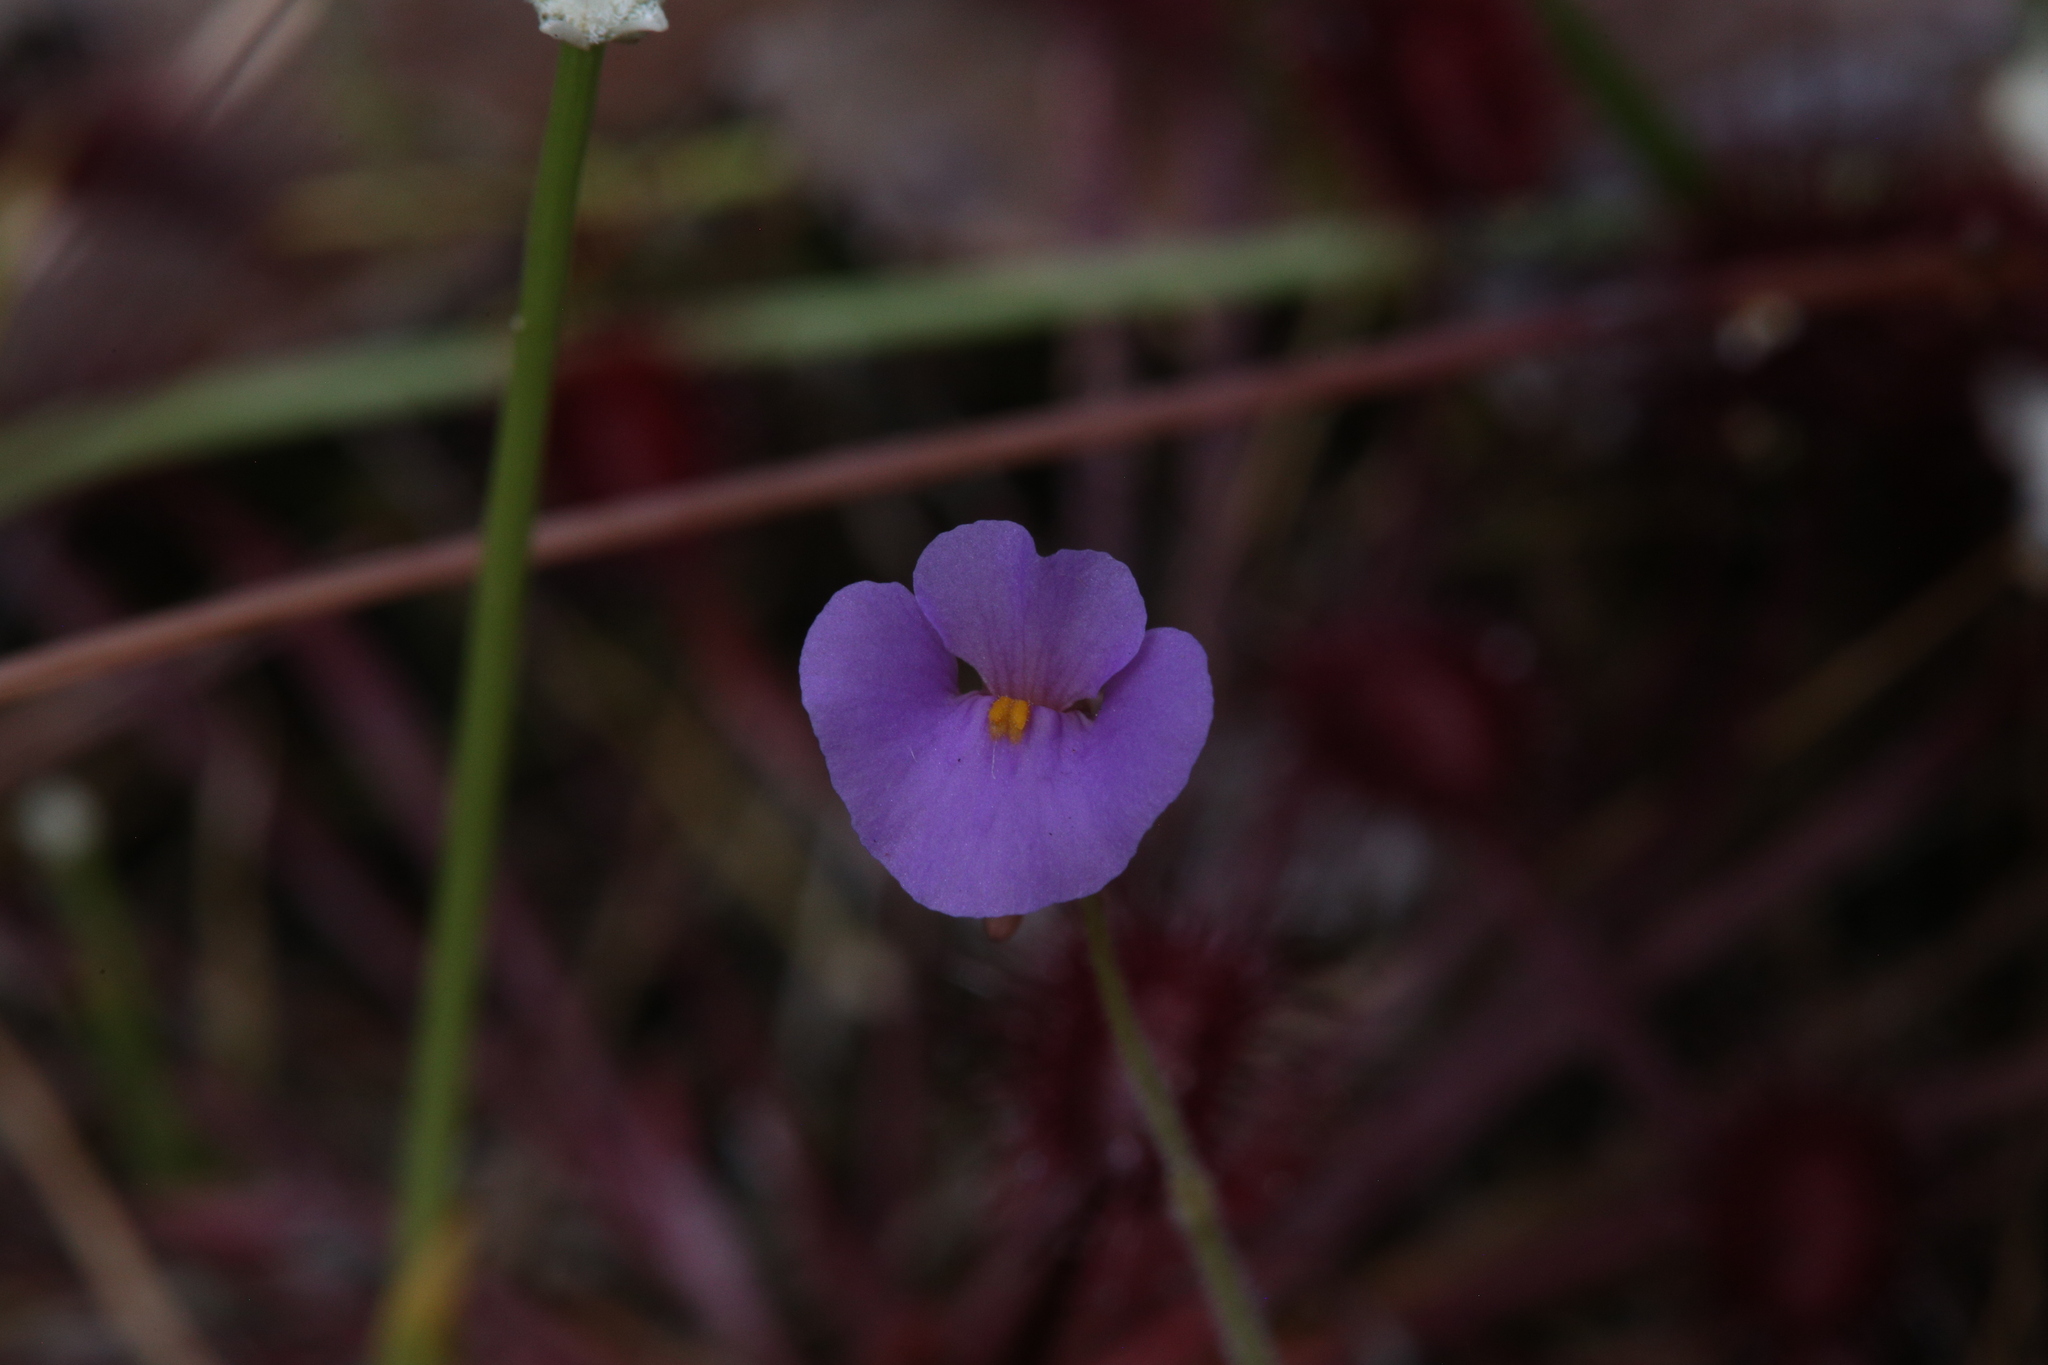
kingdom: Plantae
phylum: Tracheophyta
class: Magnoliopsida
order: Lamiales
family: Lentibulariaceae
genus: Utricularia
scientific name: Utricularia lasiocaulis
